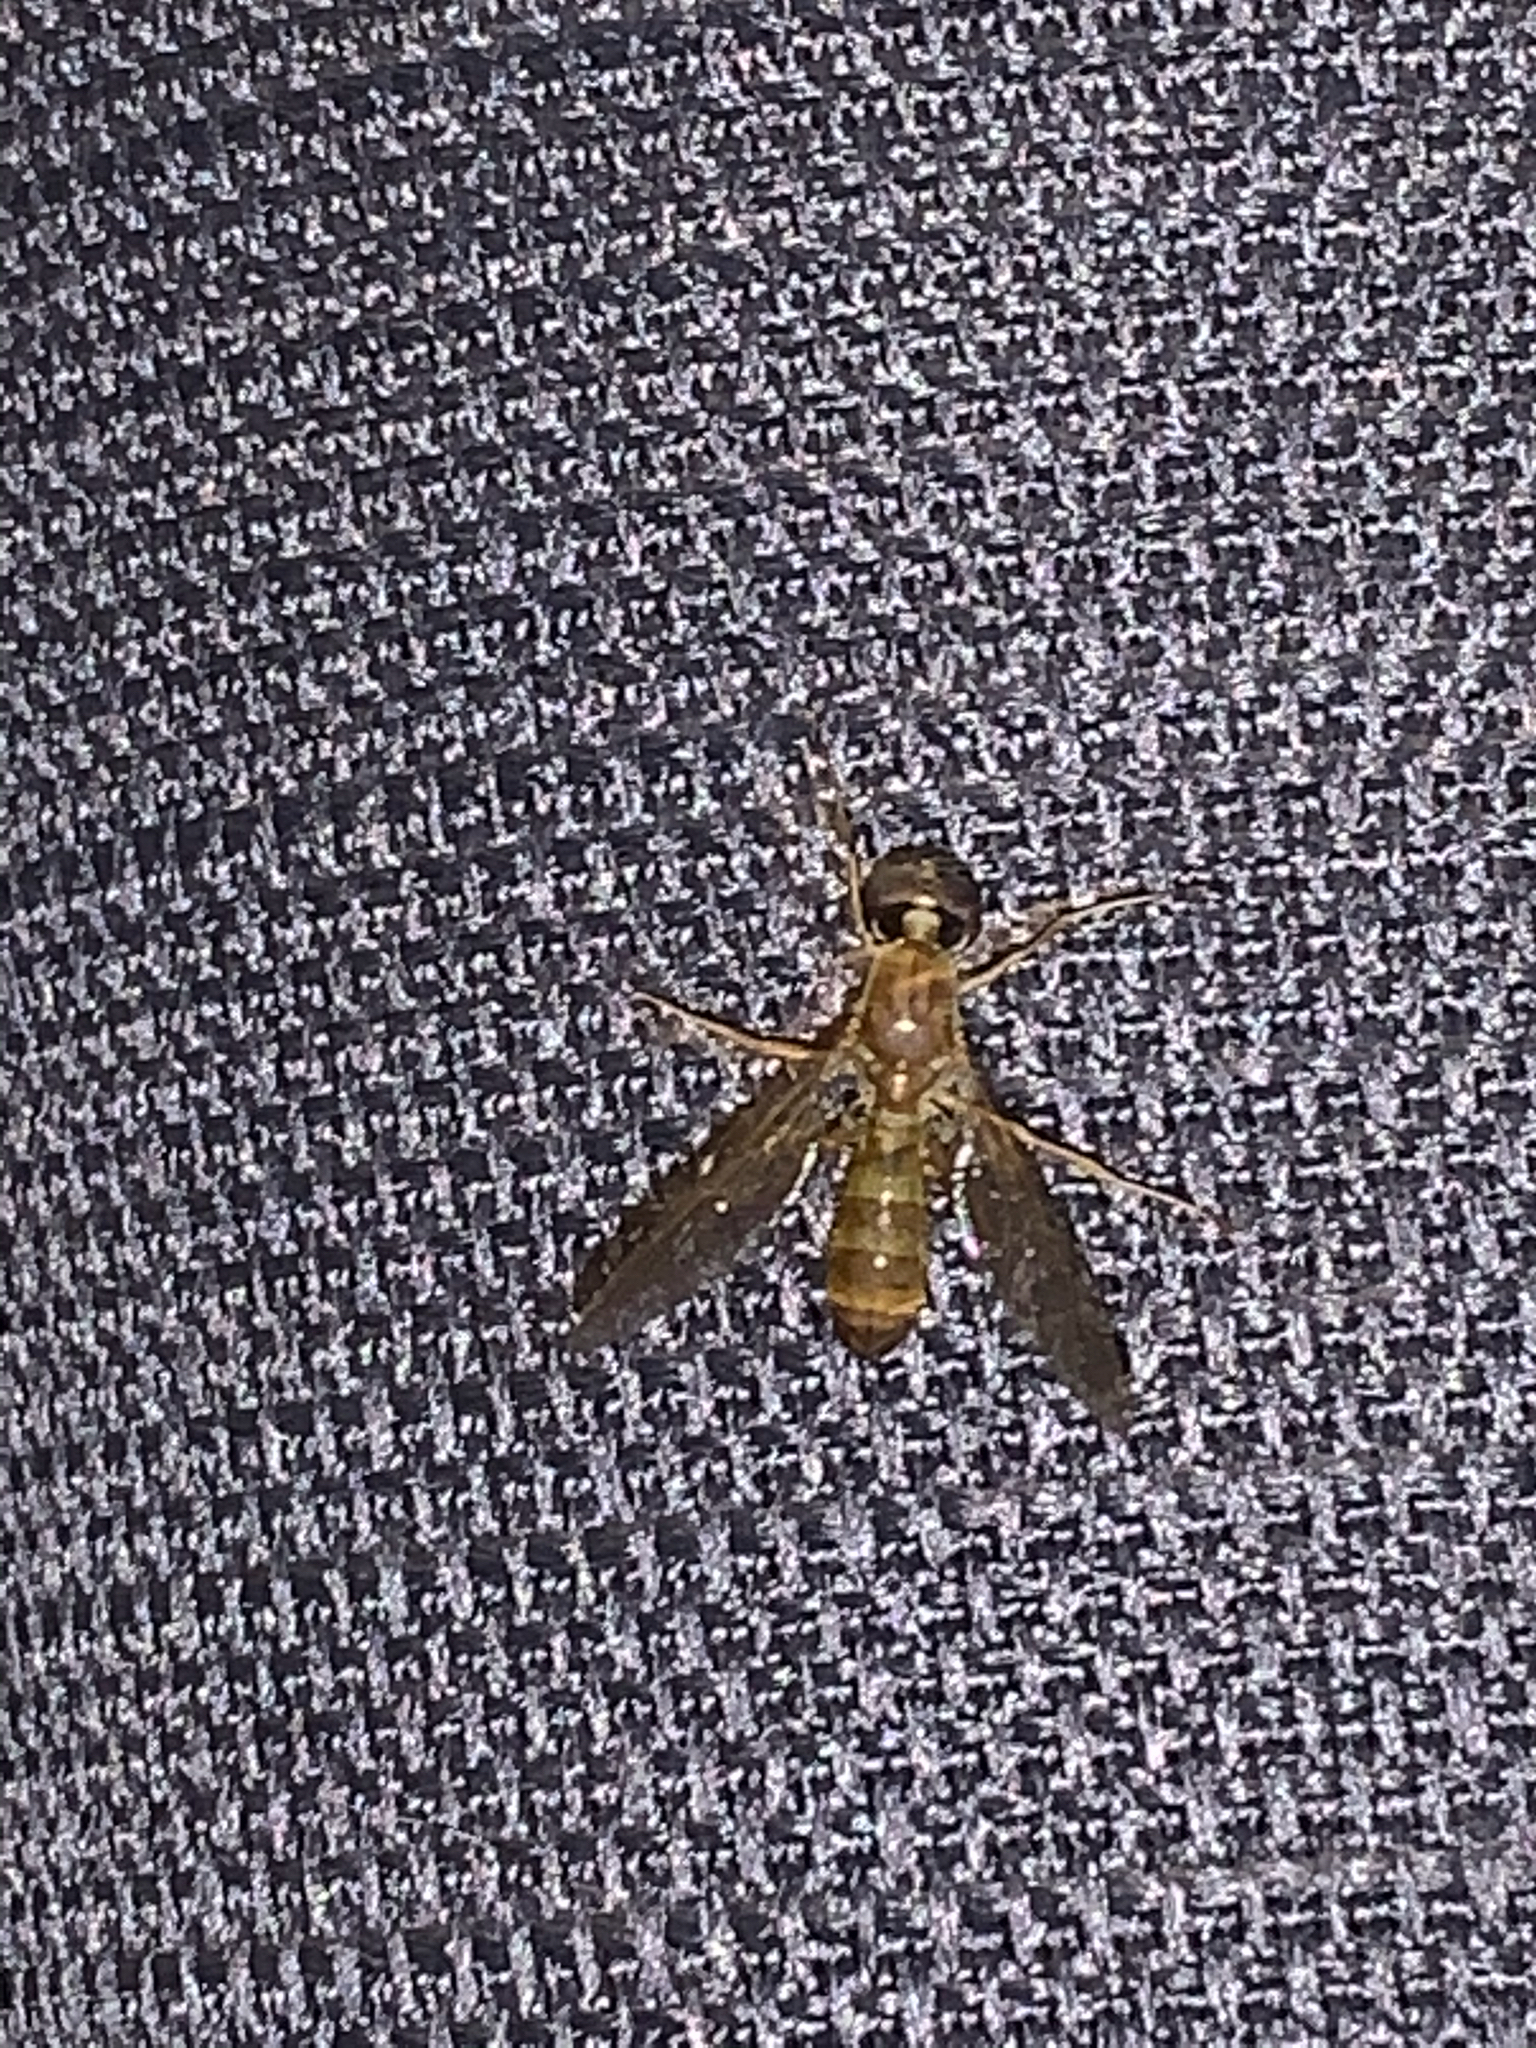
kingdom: Animalia
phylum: Arthropoda
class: Insecta
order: Diptera
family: Stratiomyidae
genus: Ptecticus
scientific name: Ptecticus trivittatus
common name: Compost fly
